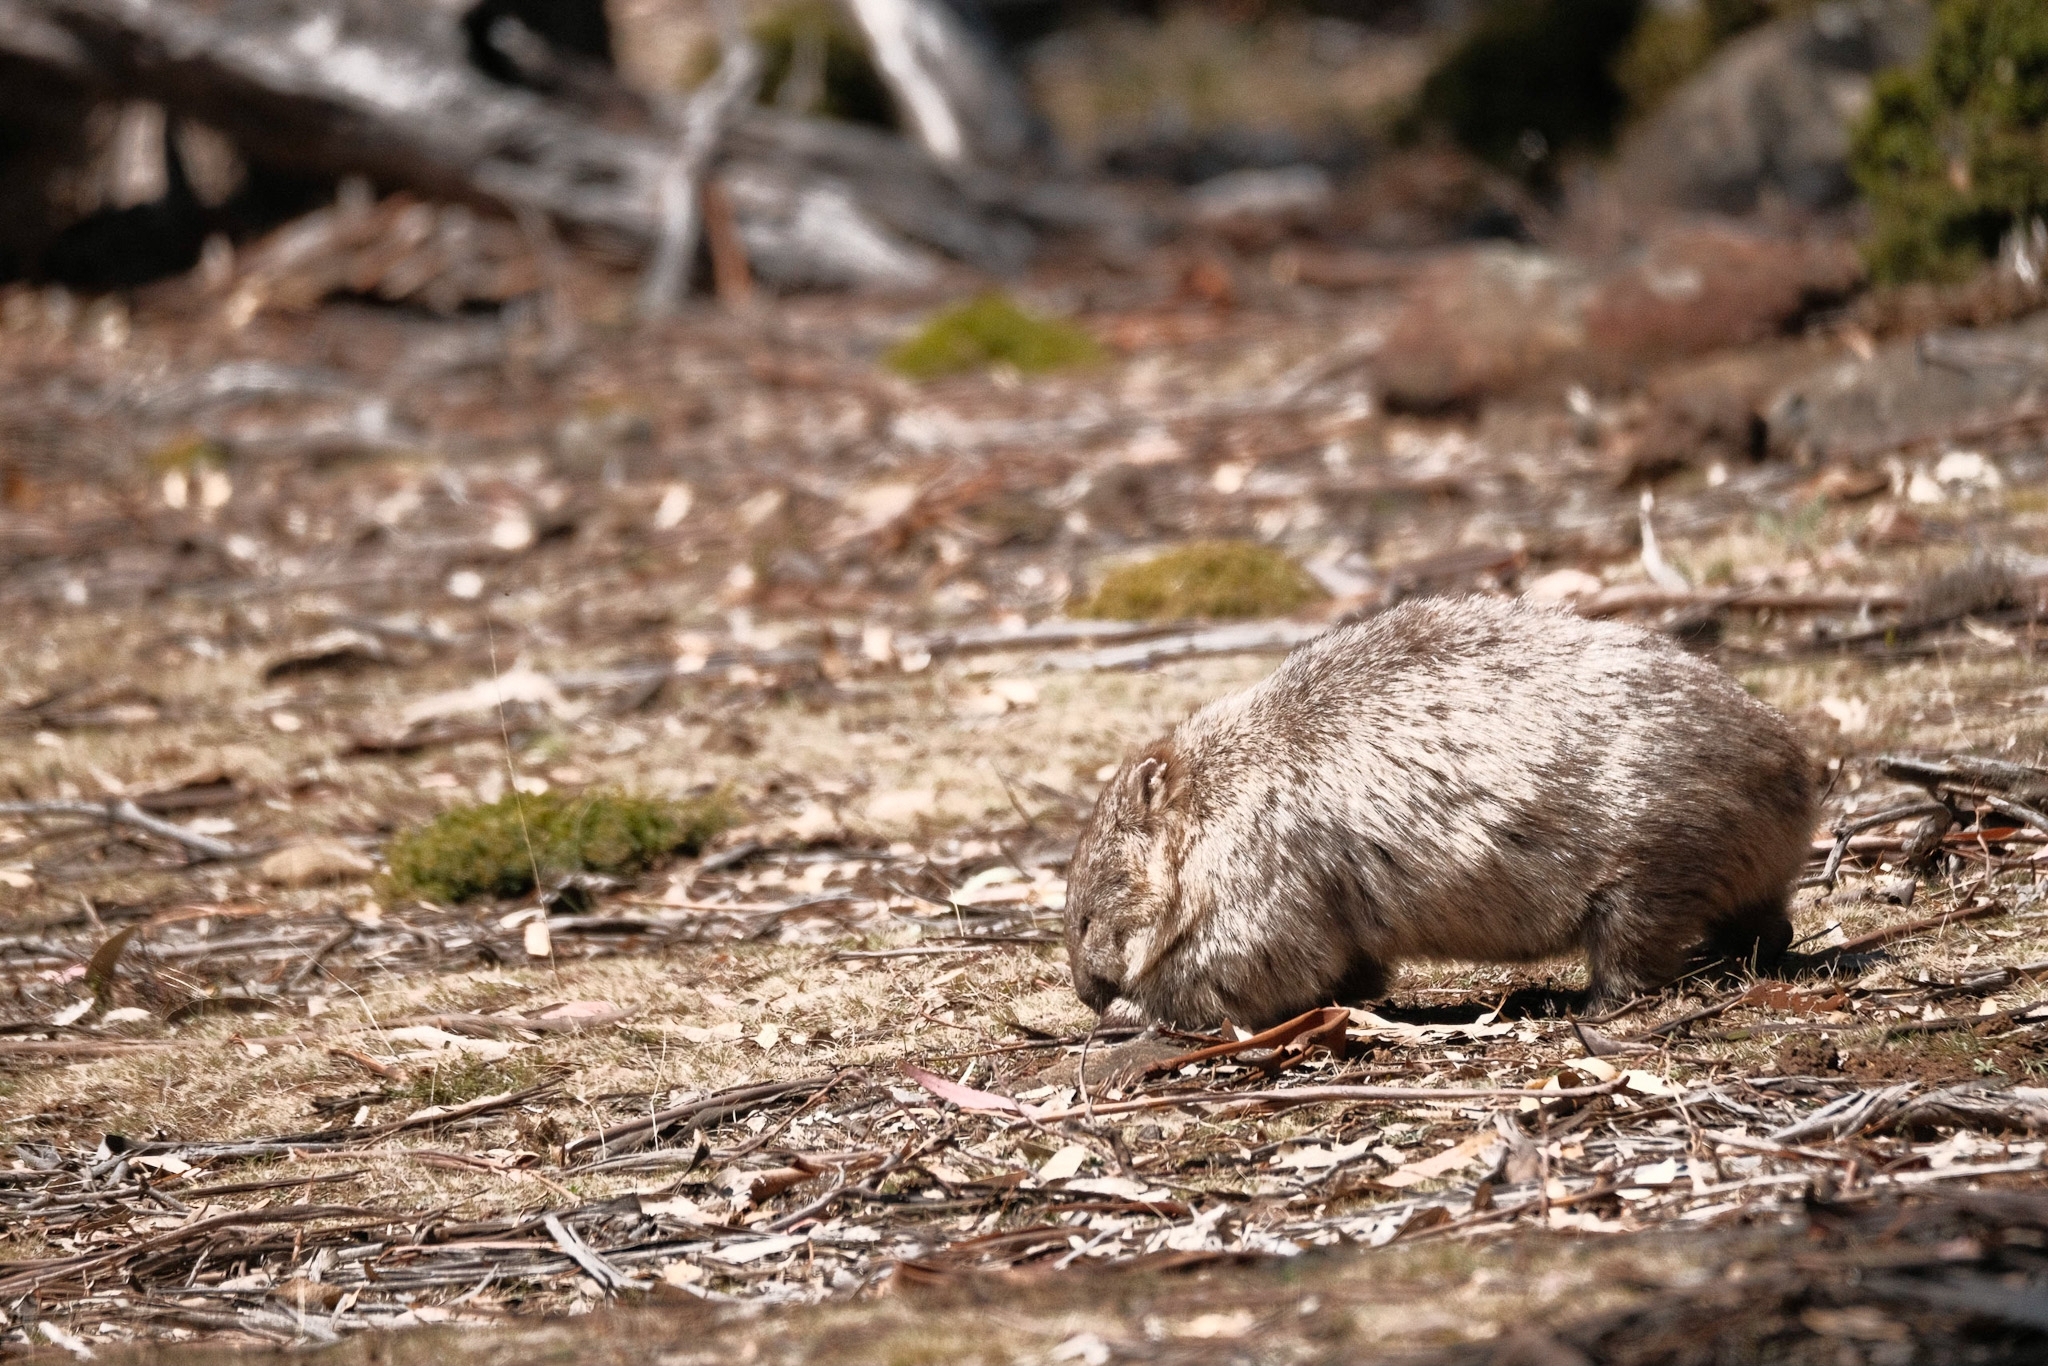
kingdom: Animalia
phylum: Chordata
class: Mammalia
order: Diprotodontia
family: Vombatidae
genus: Vombatus
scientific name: Vombatus ursinus
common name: Common wombat
